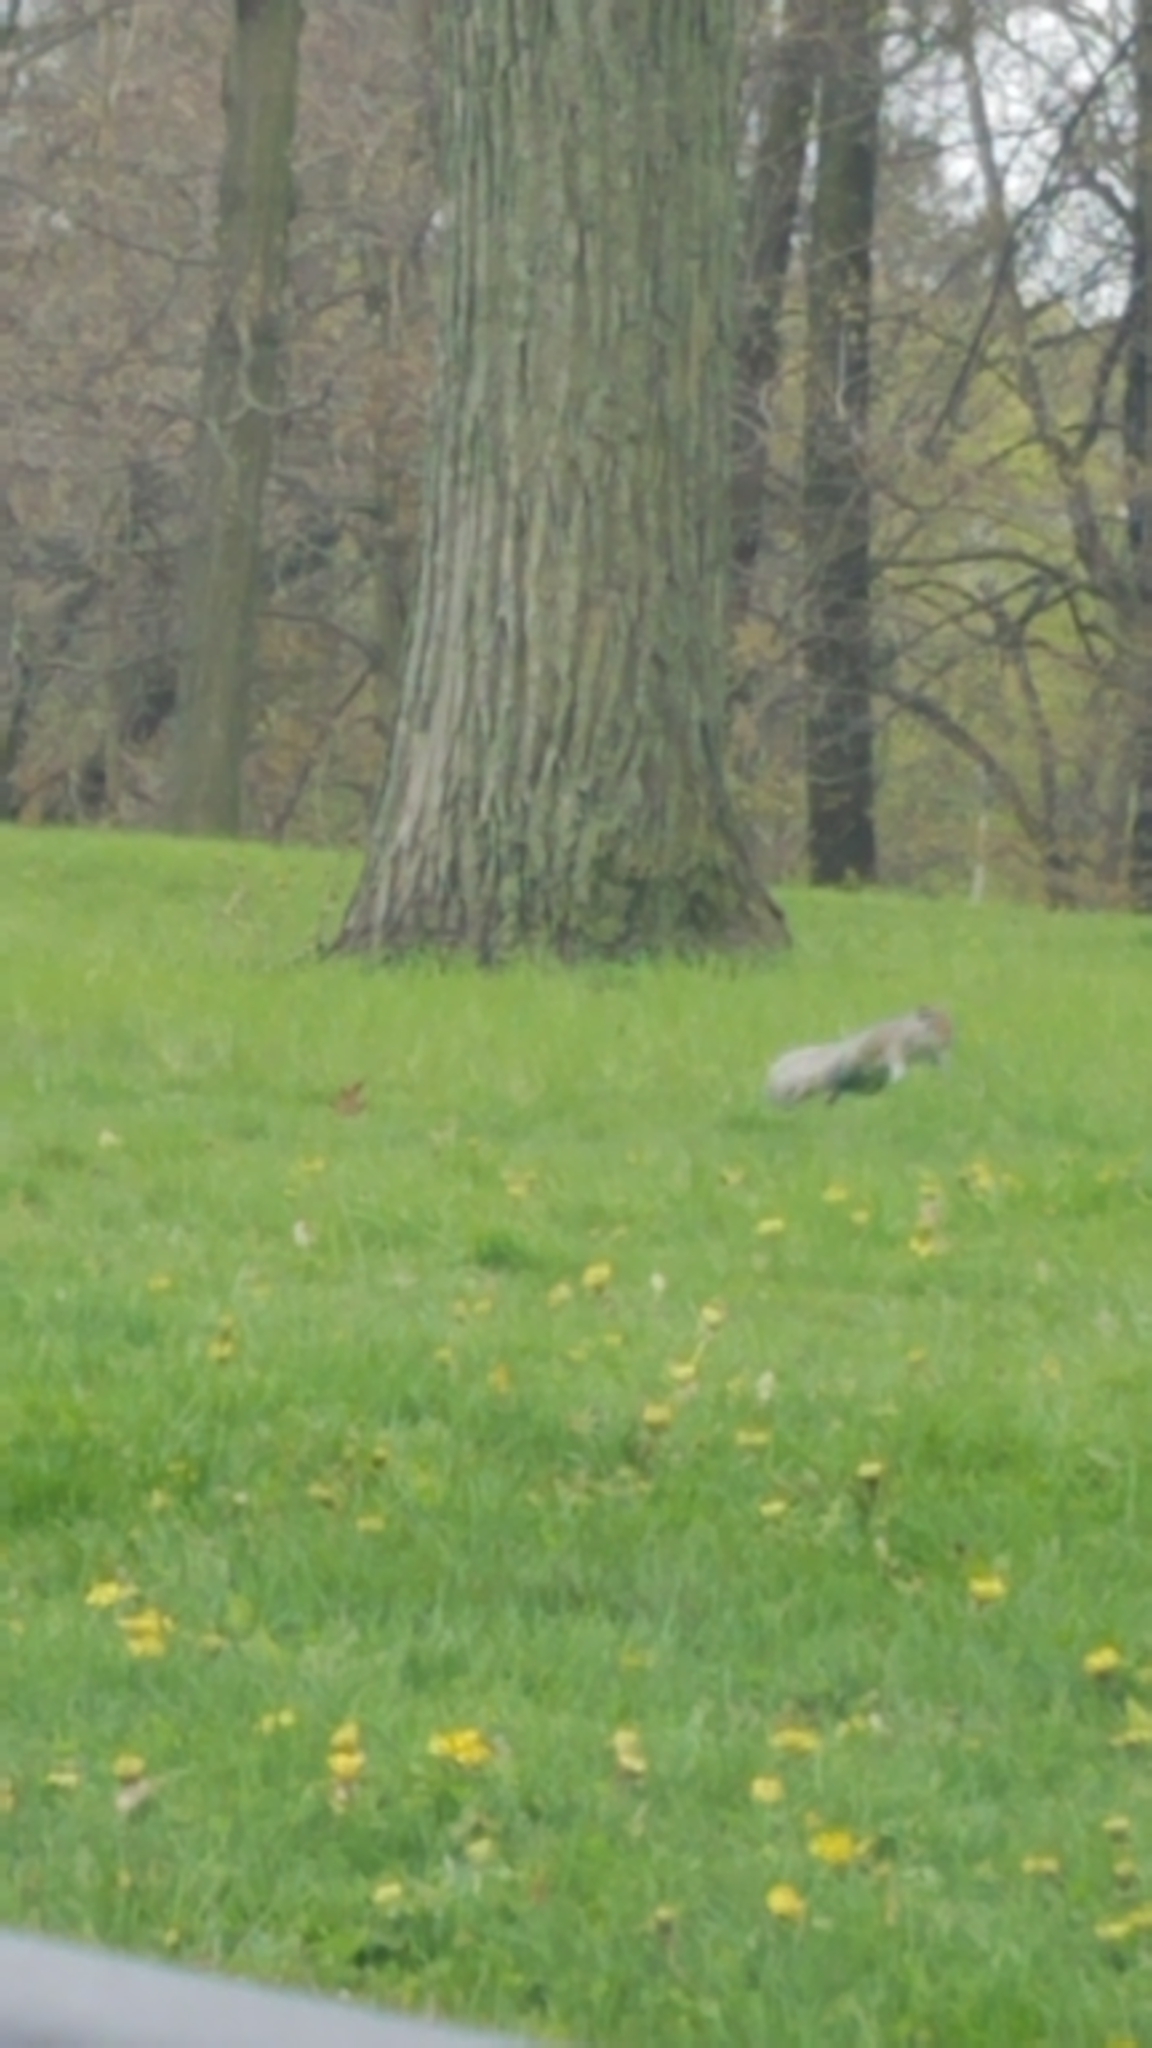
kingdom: Animalia
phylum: Chordata
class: Mammalia
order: Rodentia
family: Sciuridae
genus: Sciurus
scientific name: Sciurus carolinensis
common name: Eastern gray squirrel
